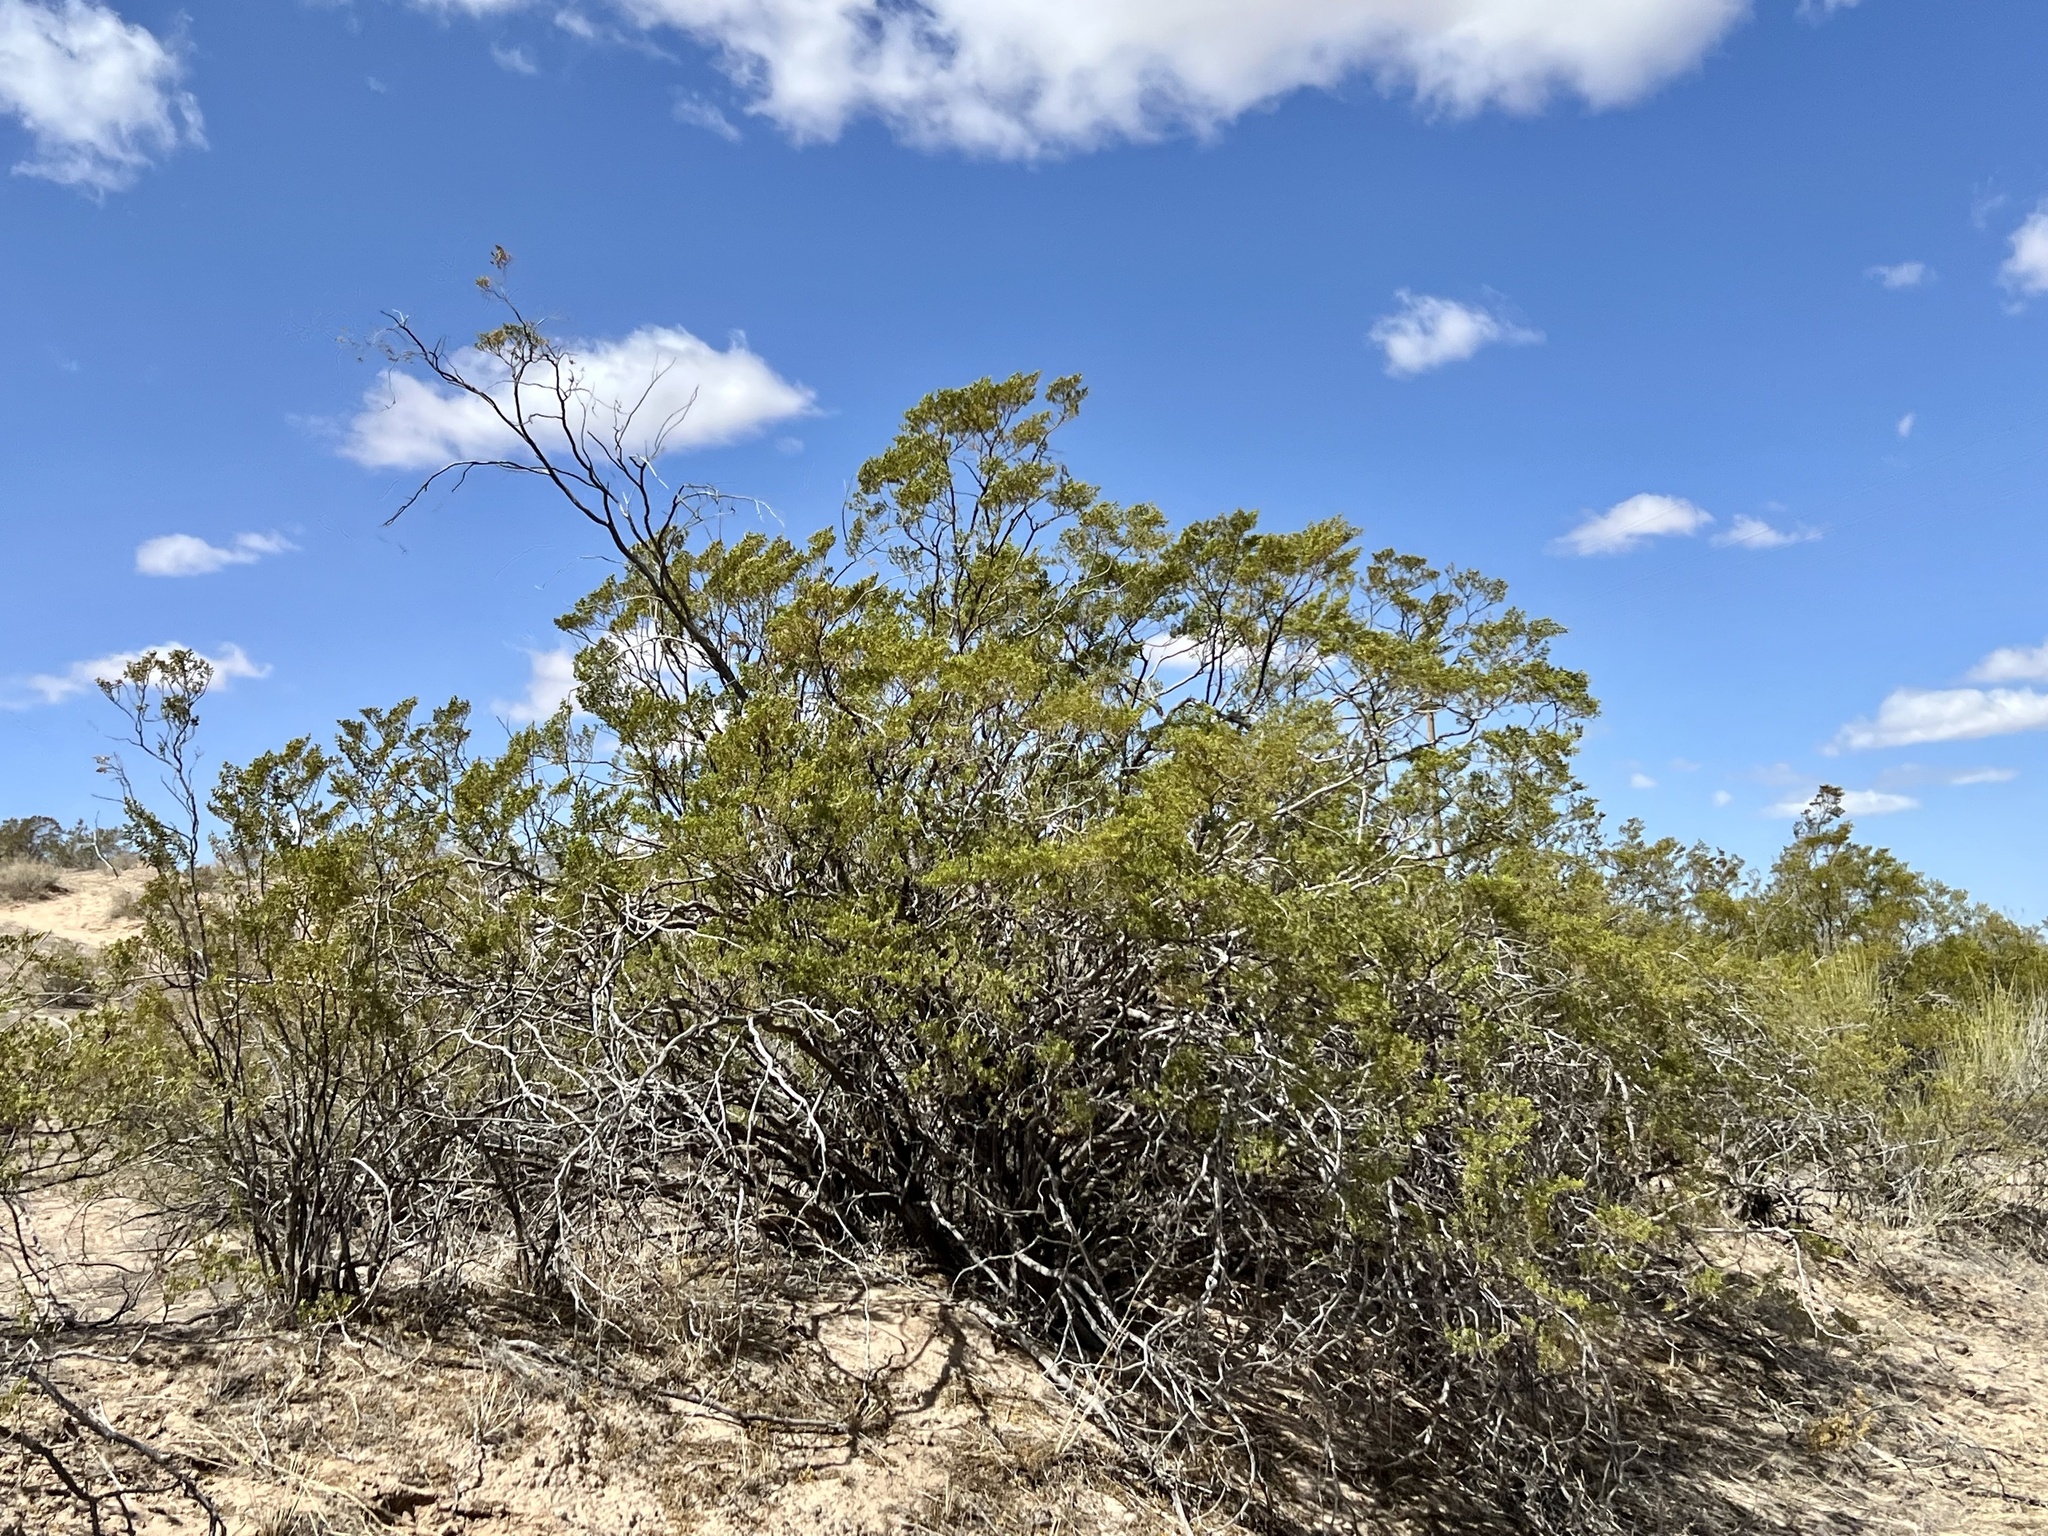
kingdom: Plantae
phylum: Tracheophyta
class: Magnoliopsida
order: Zygophyllales
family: Zygophyllaceae
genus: Larrea
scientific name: Larrea tridentata
